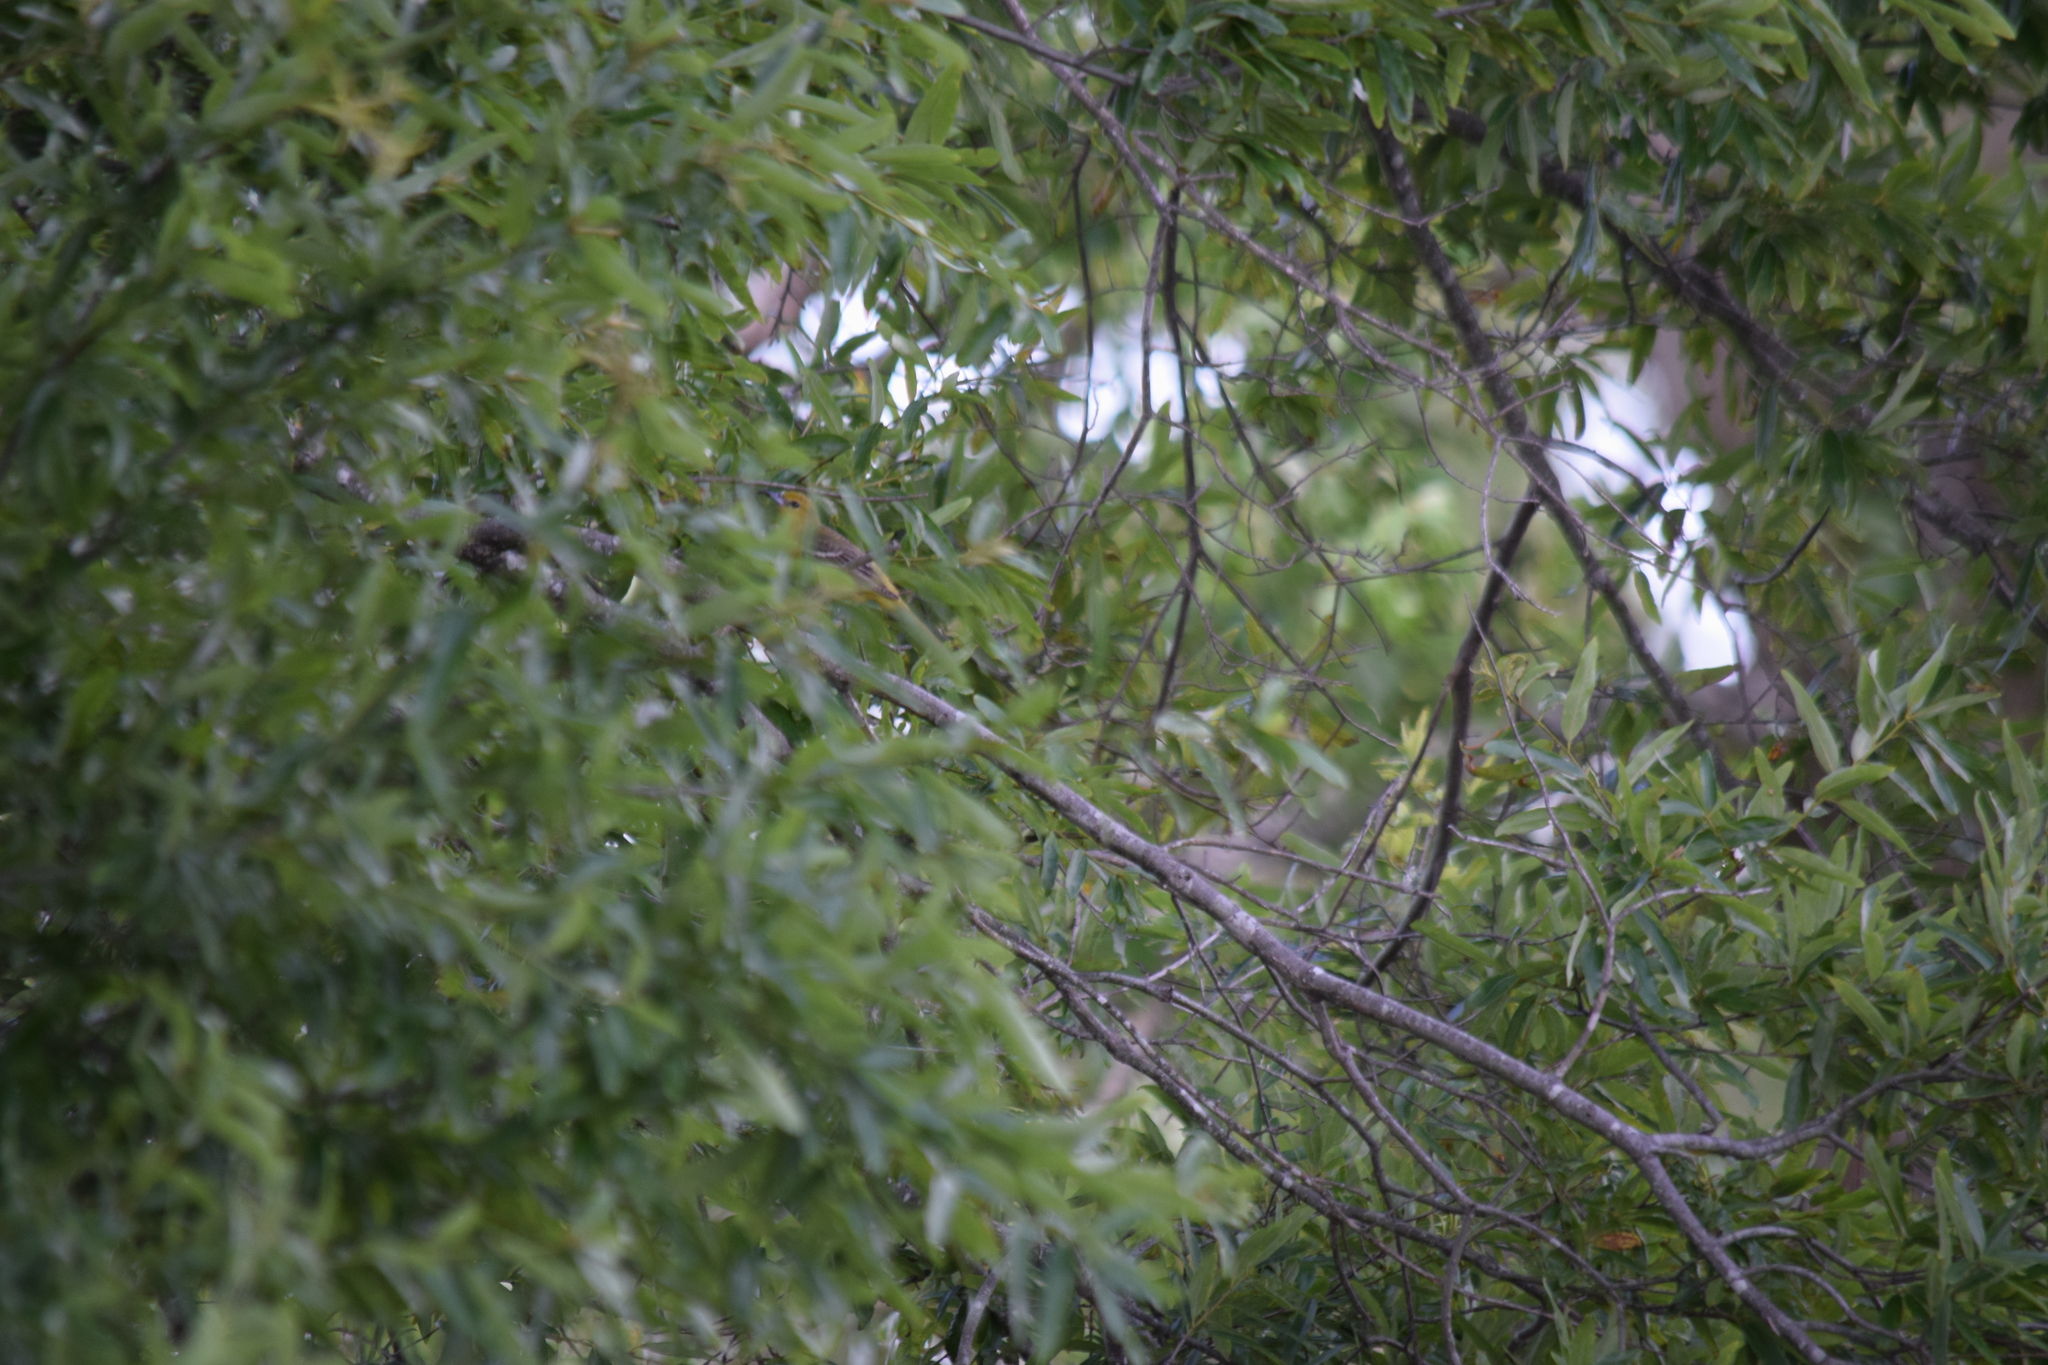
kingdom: Animalia
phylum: Chordata
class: Aves
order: Passeriformes
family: Icteridae
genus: Icterus
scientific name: Icterus spurius
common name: Orchard oriole
